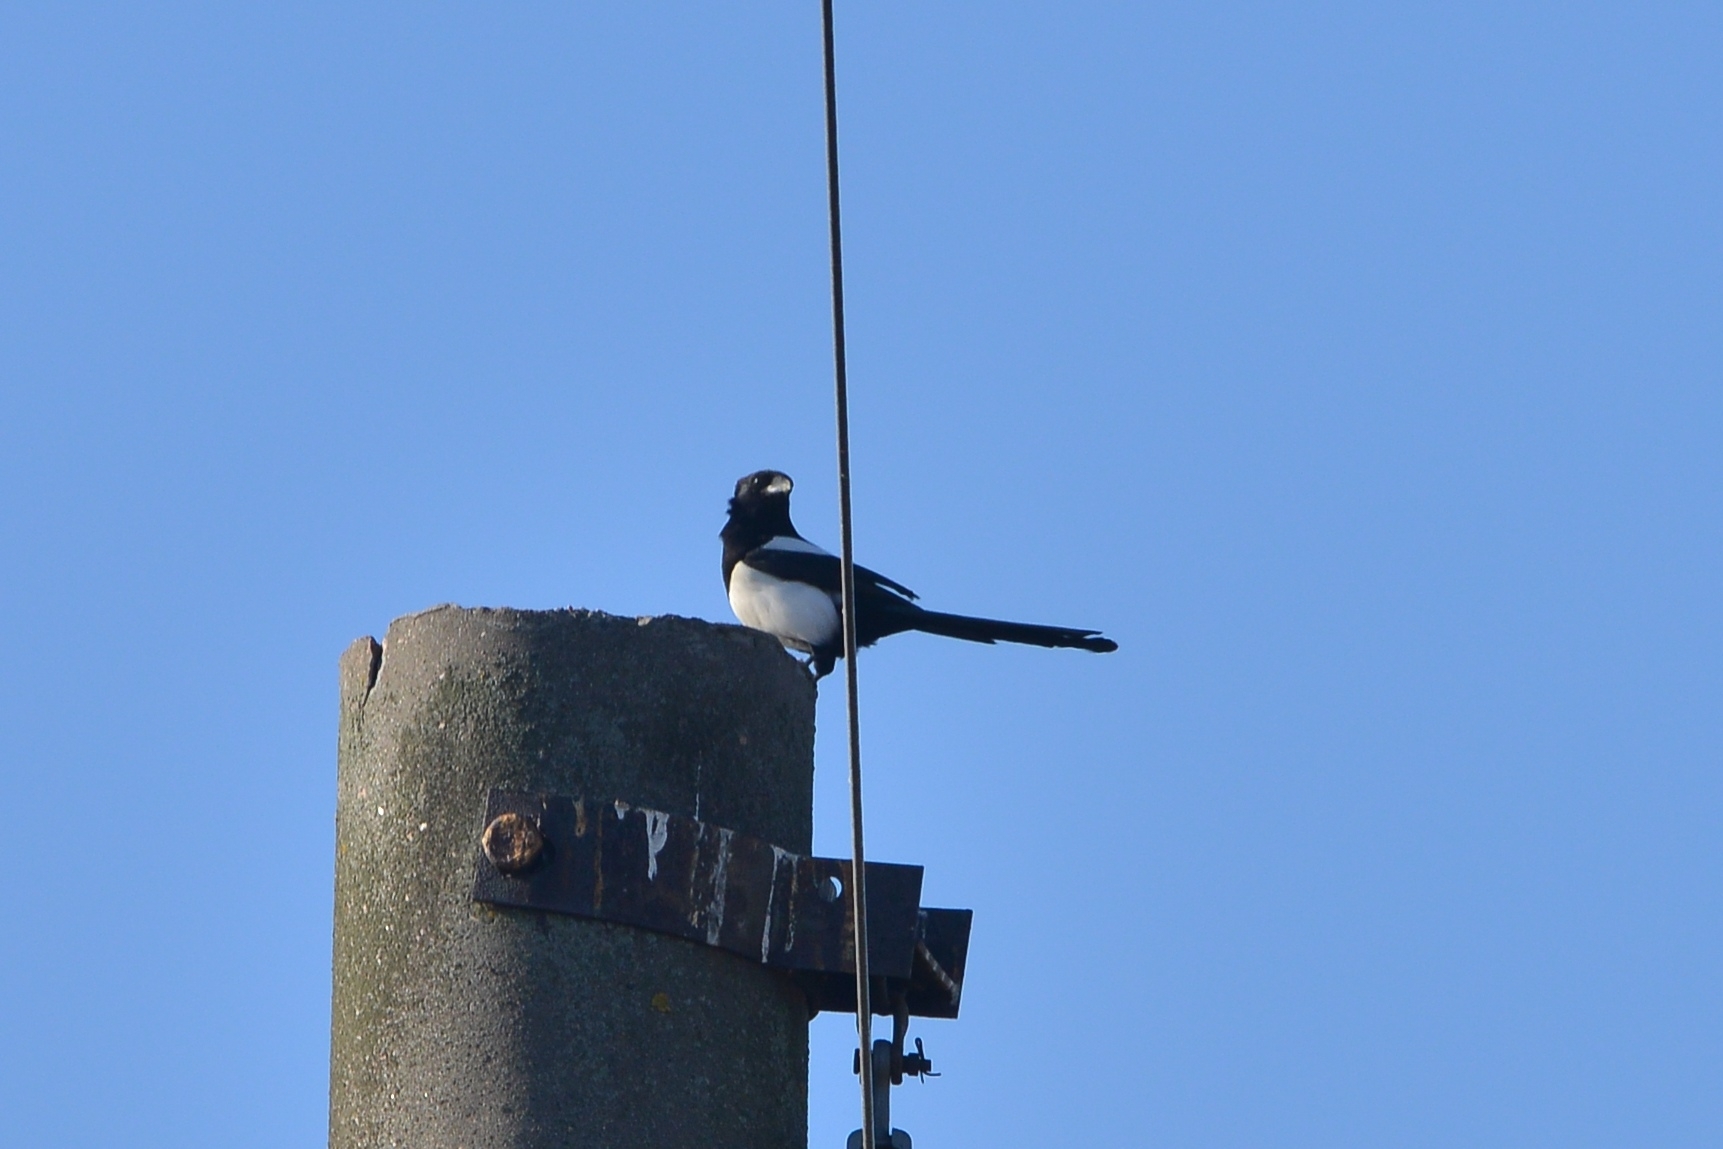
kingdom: Animalia
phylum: Chordata
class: Aves
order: Passeriformes
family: Corvidae
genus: Pica
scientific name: Pica pica
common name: Eurasian magpie
